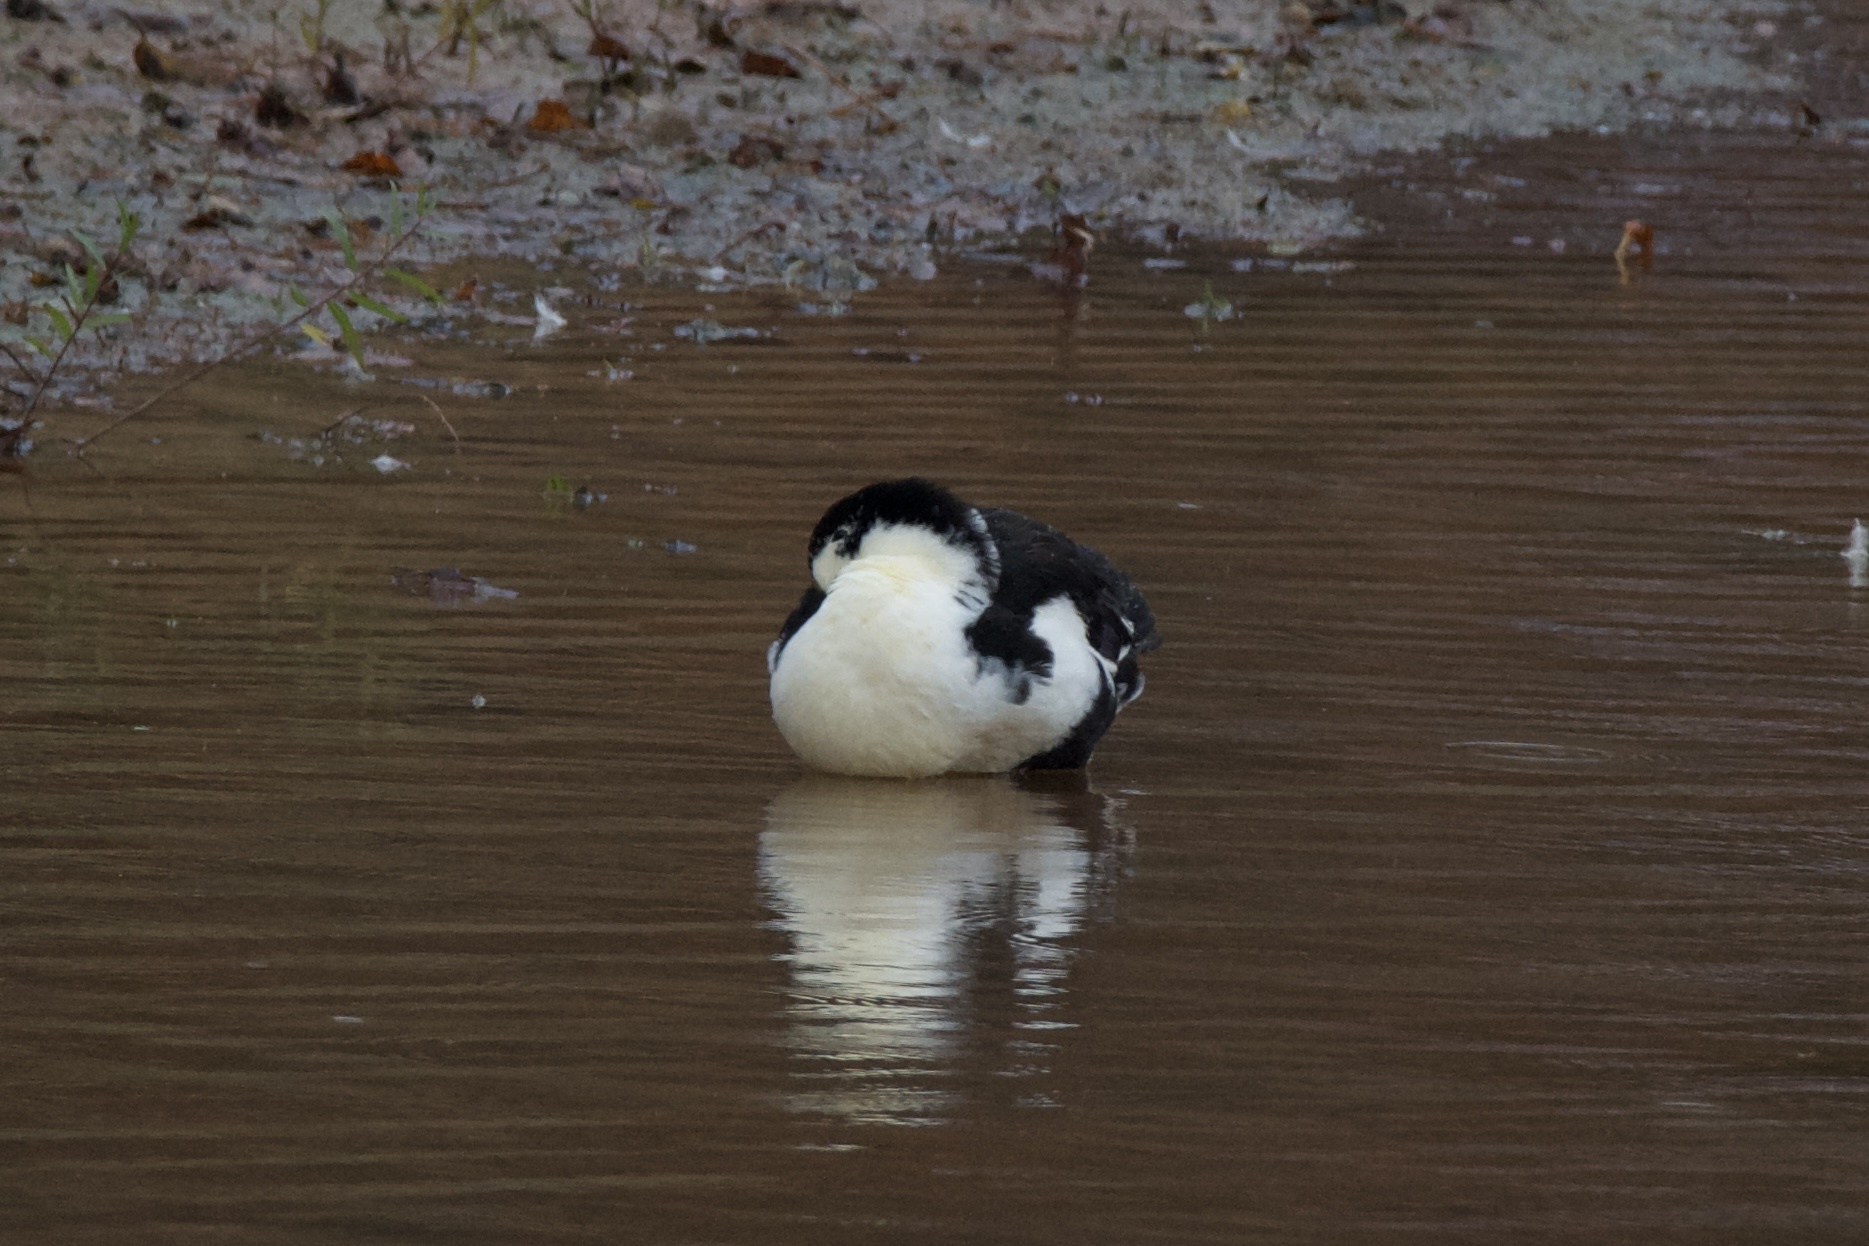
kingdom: Animalia
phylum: Chordata
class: Aves
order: Anseriformes
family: Anatidae
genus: Anas
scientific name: Anas platyrhynchos
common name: Mallard
